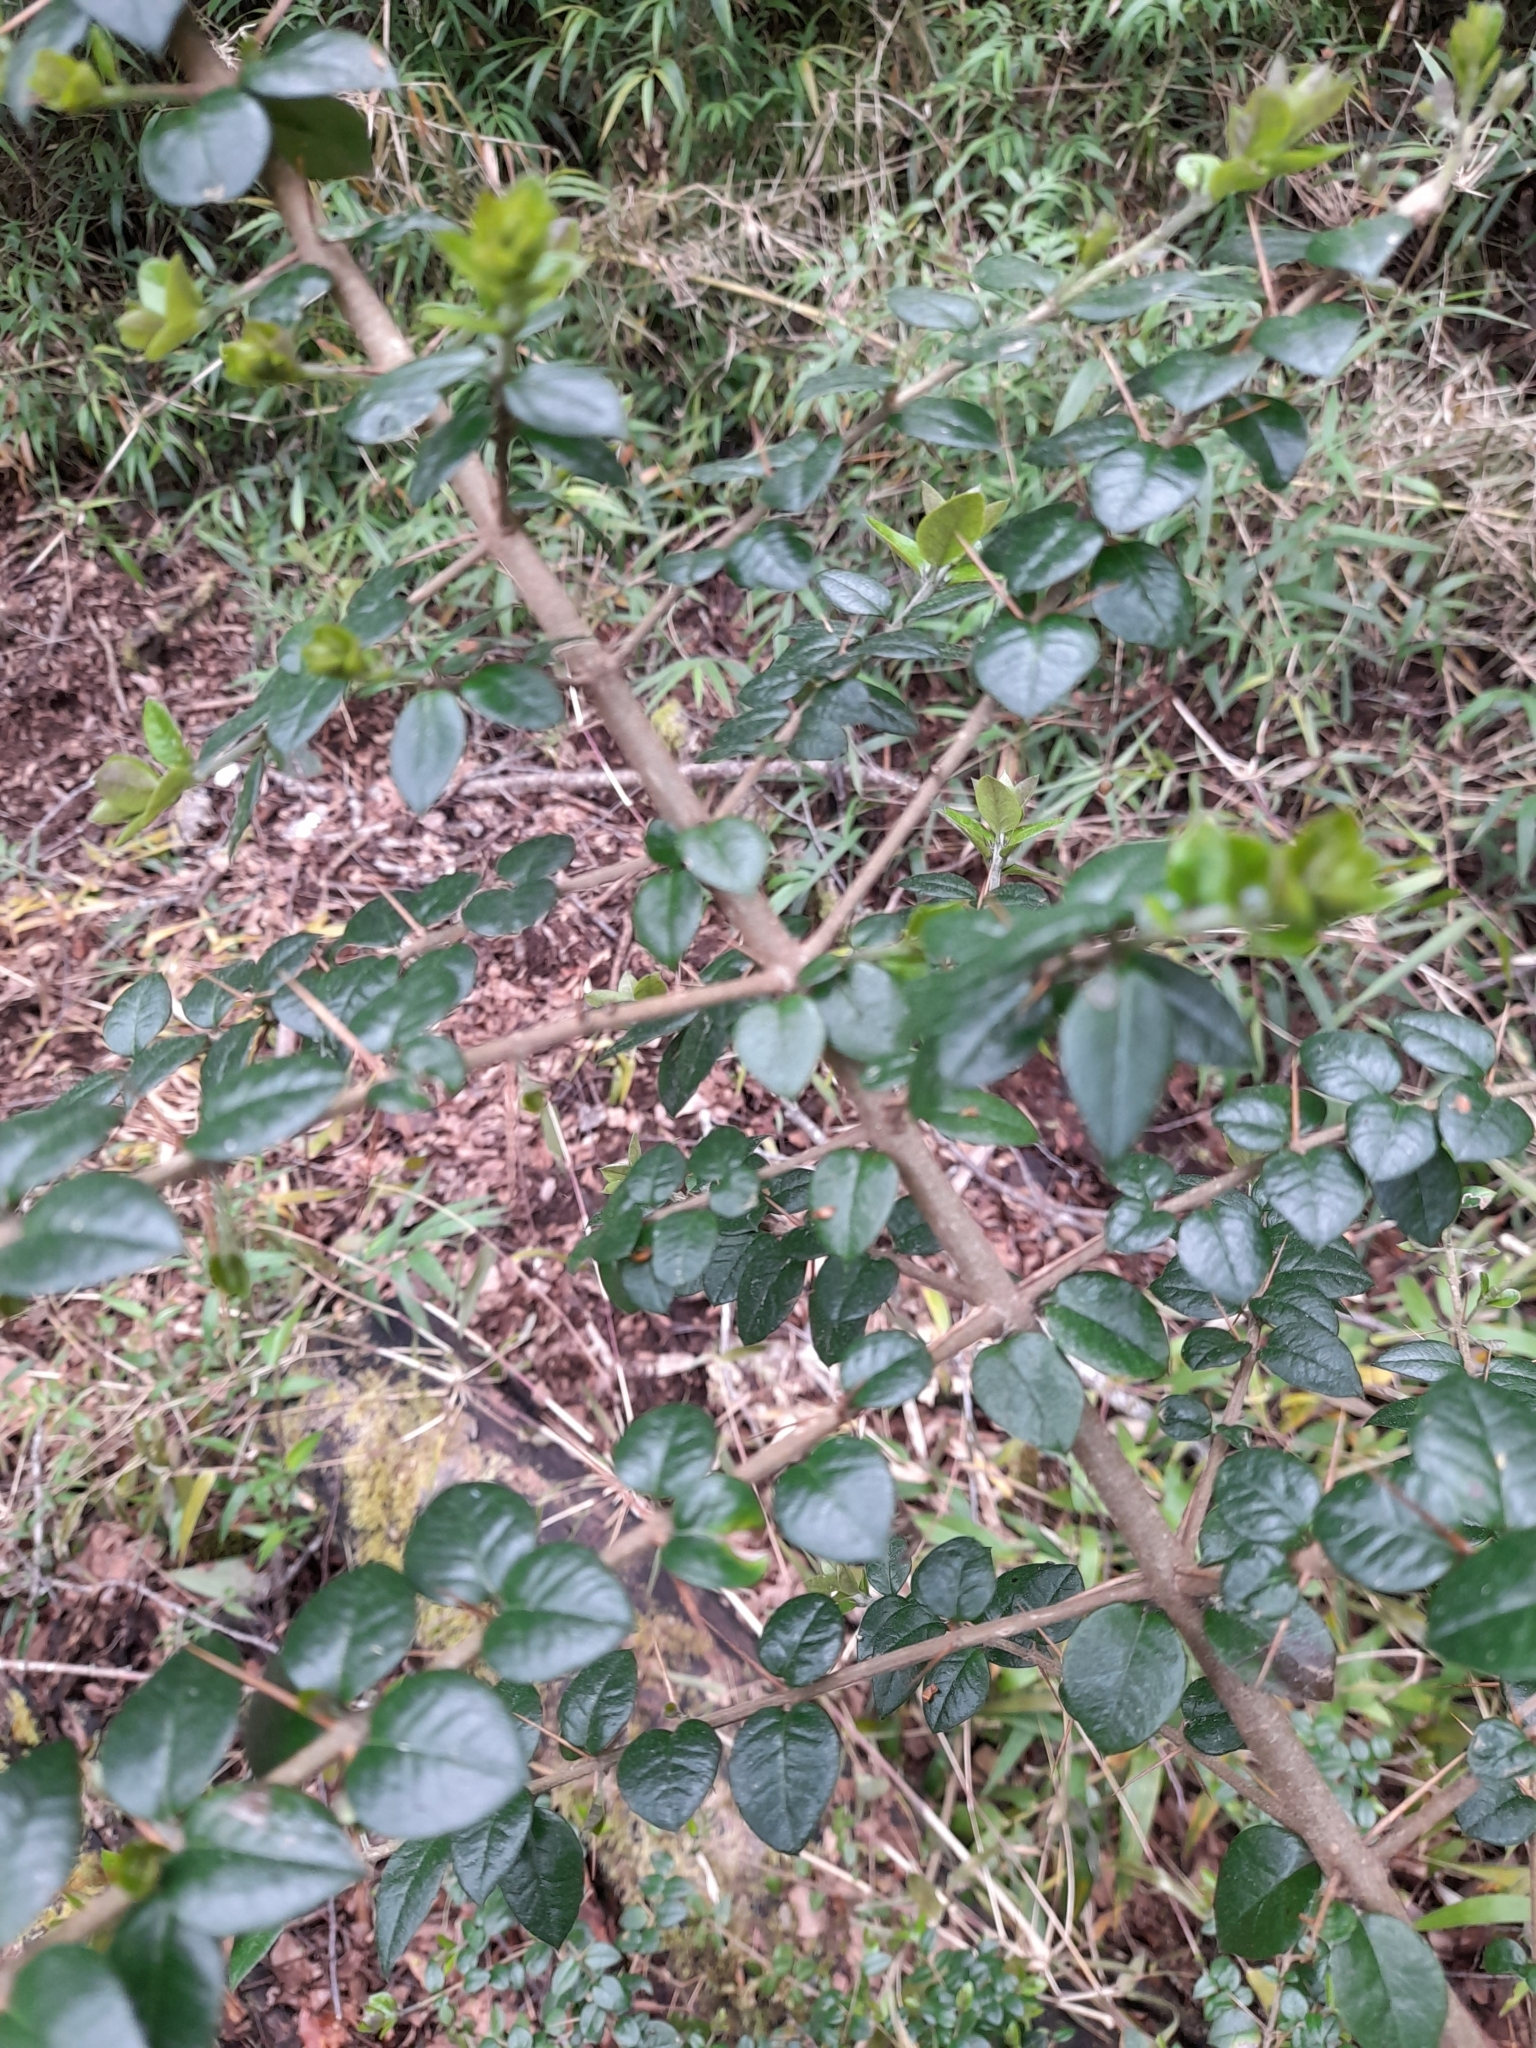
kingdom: Plantae
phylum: Tracheophyta
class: Magnoliopsida
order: Lamiales
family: Verbenaceae
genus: Rhaphithamnus
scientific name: Rhaphithamnus spinosus
